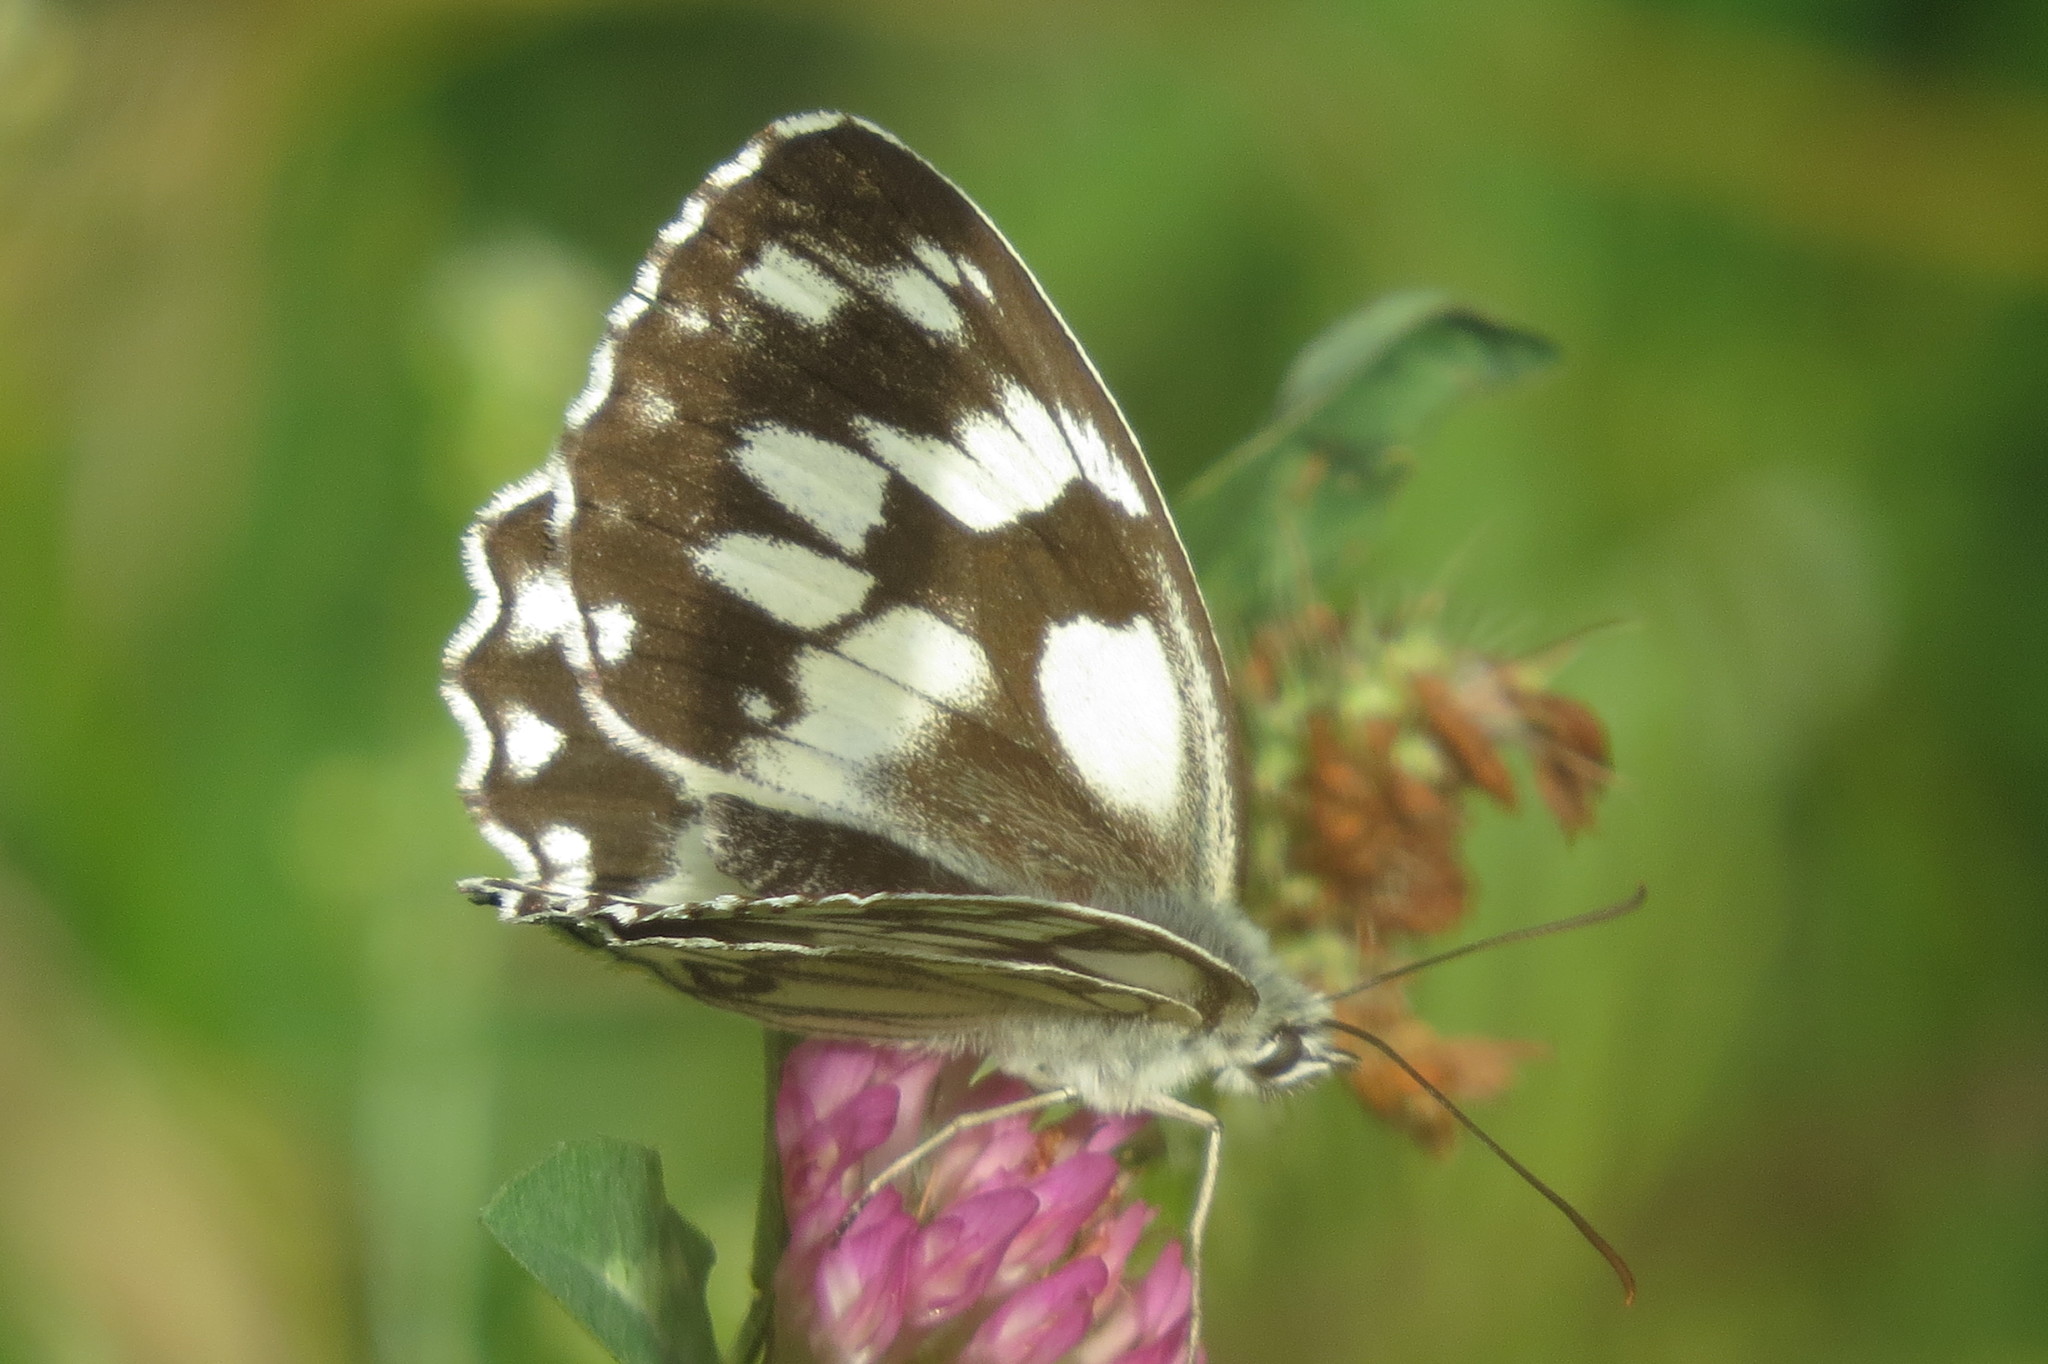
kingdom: Animalia
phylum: Arthropoda
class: Insecta
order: Lepidoptera
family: Nymphalidae
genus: Melanargia
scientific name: Melanargia galathea
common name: Marbled white
